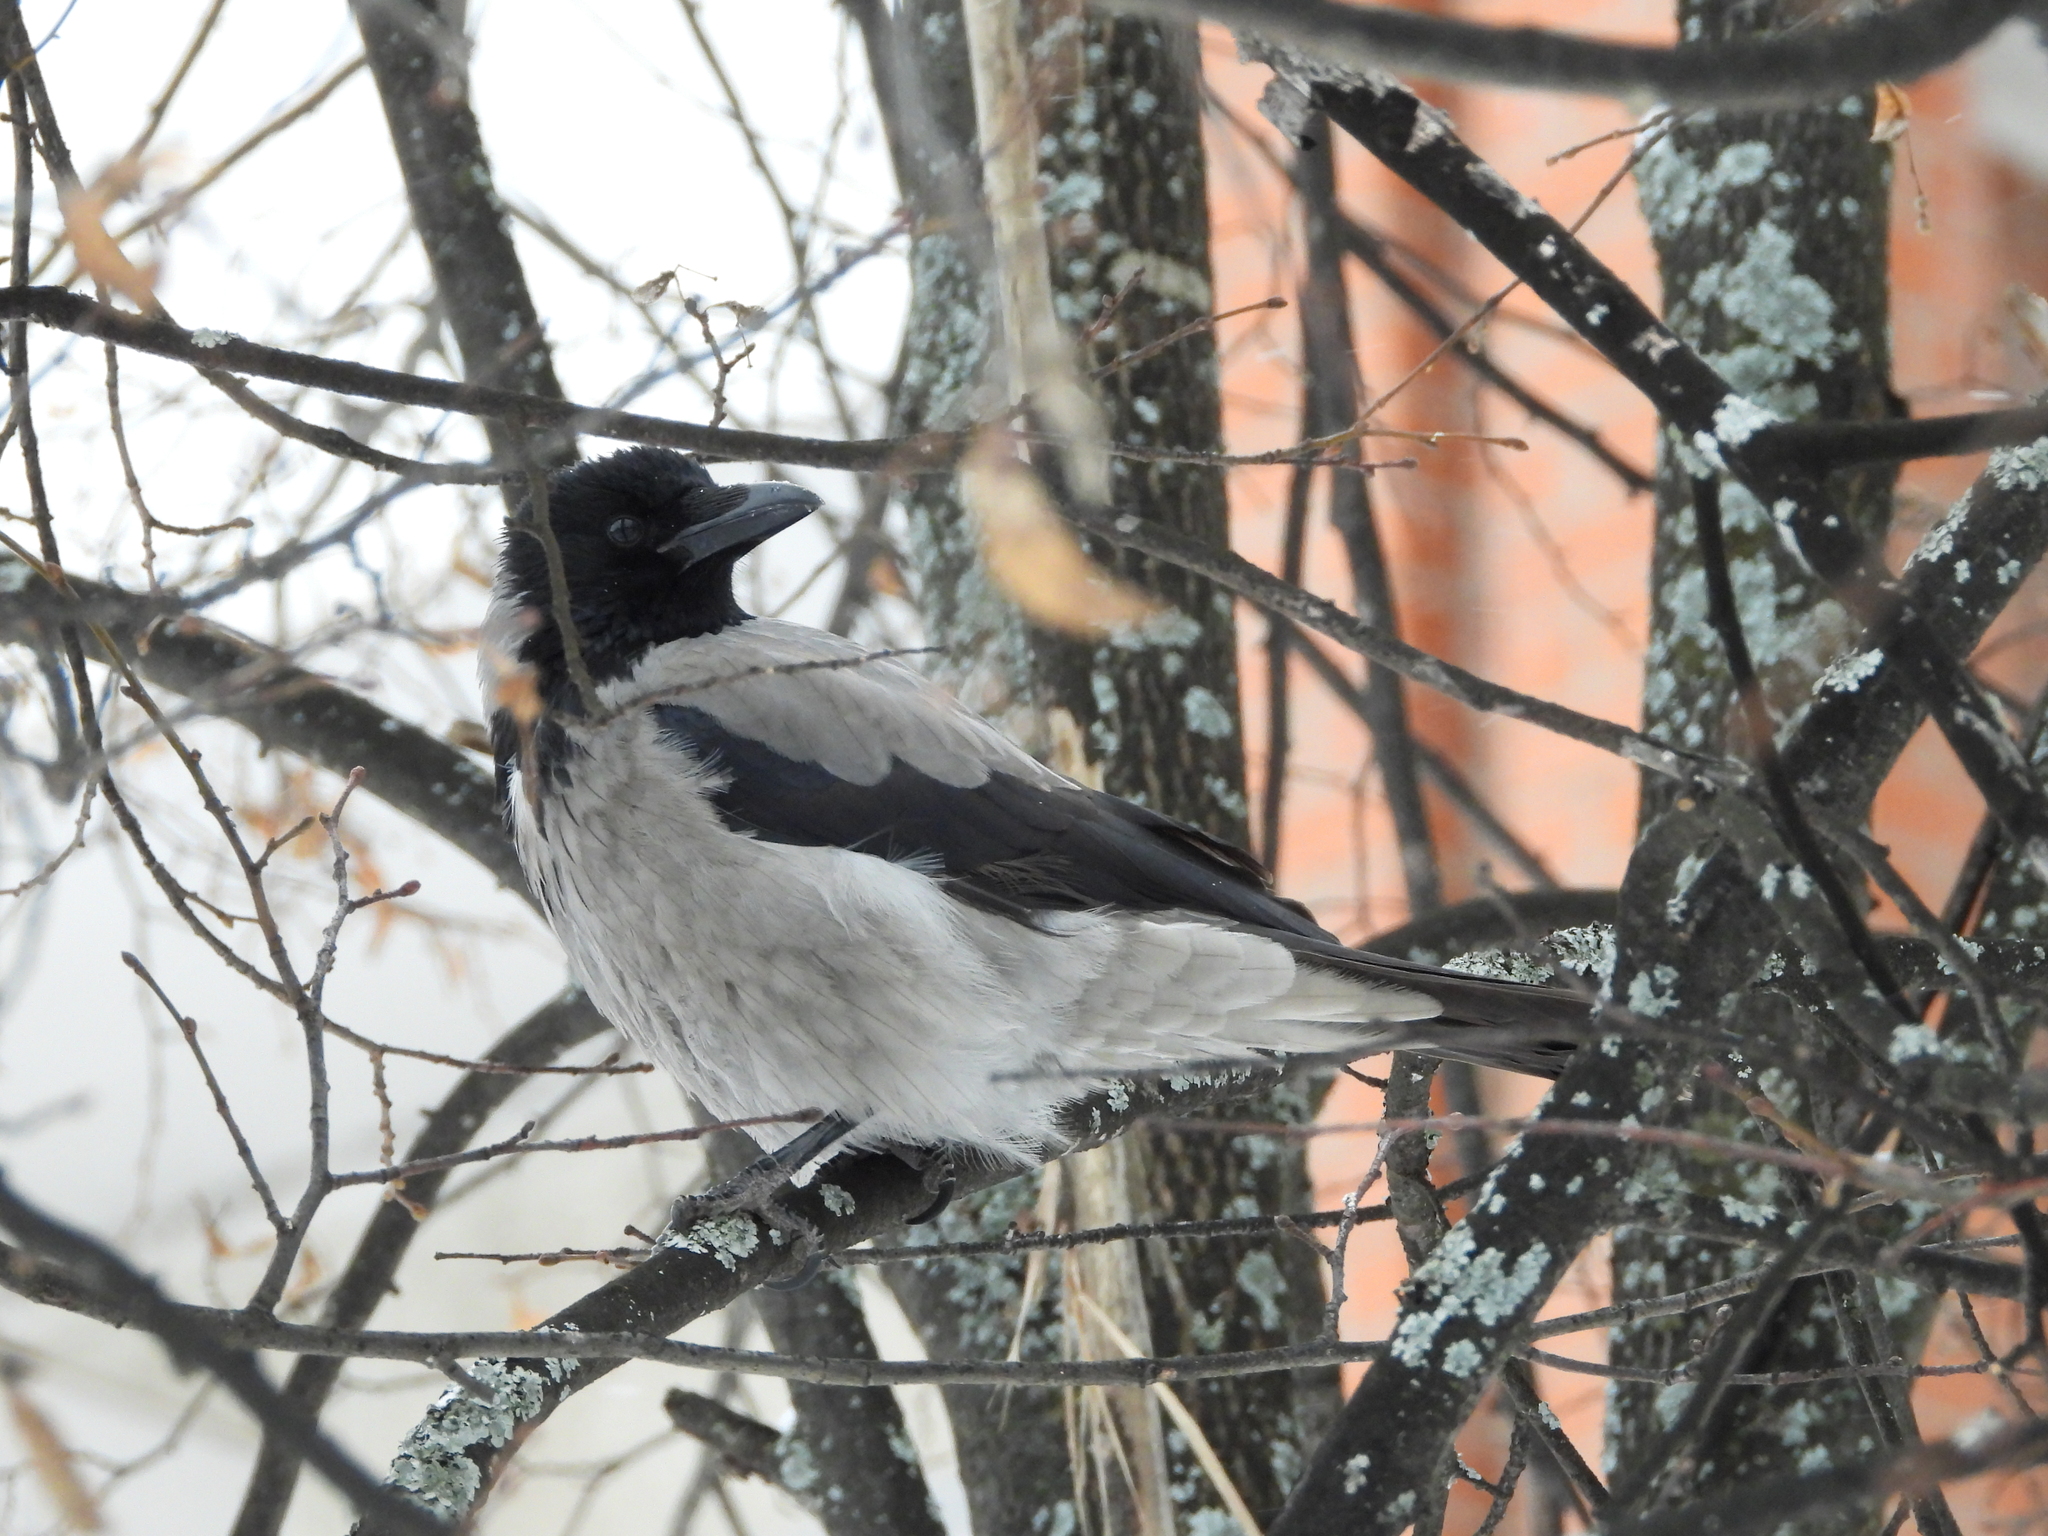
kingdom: Animalia
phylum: Chordata
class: Aves
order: Passeriformes
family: Corvidae
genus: Corvus
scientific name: Corvus cornix
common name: Hooded crow
